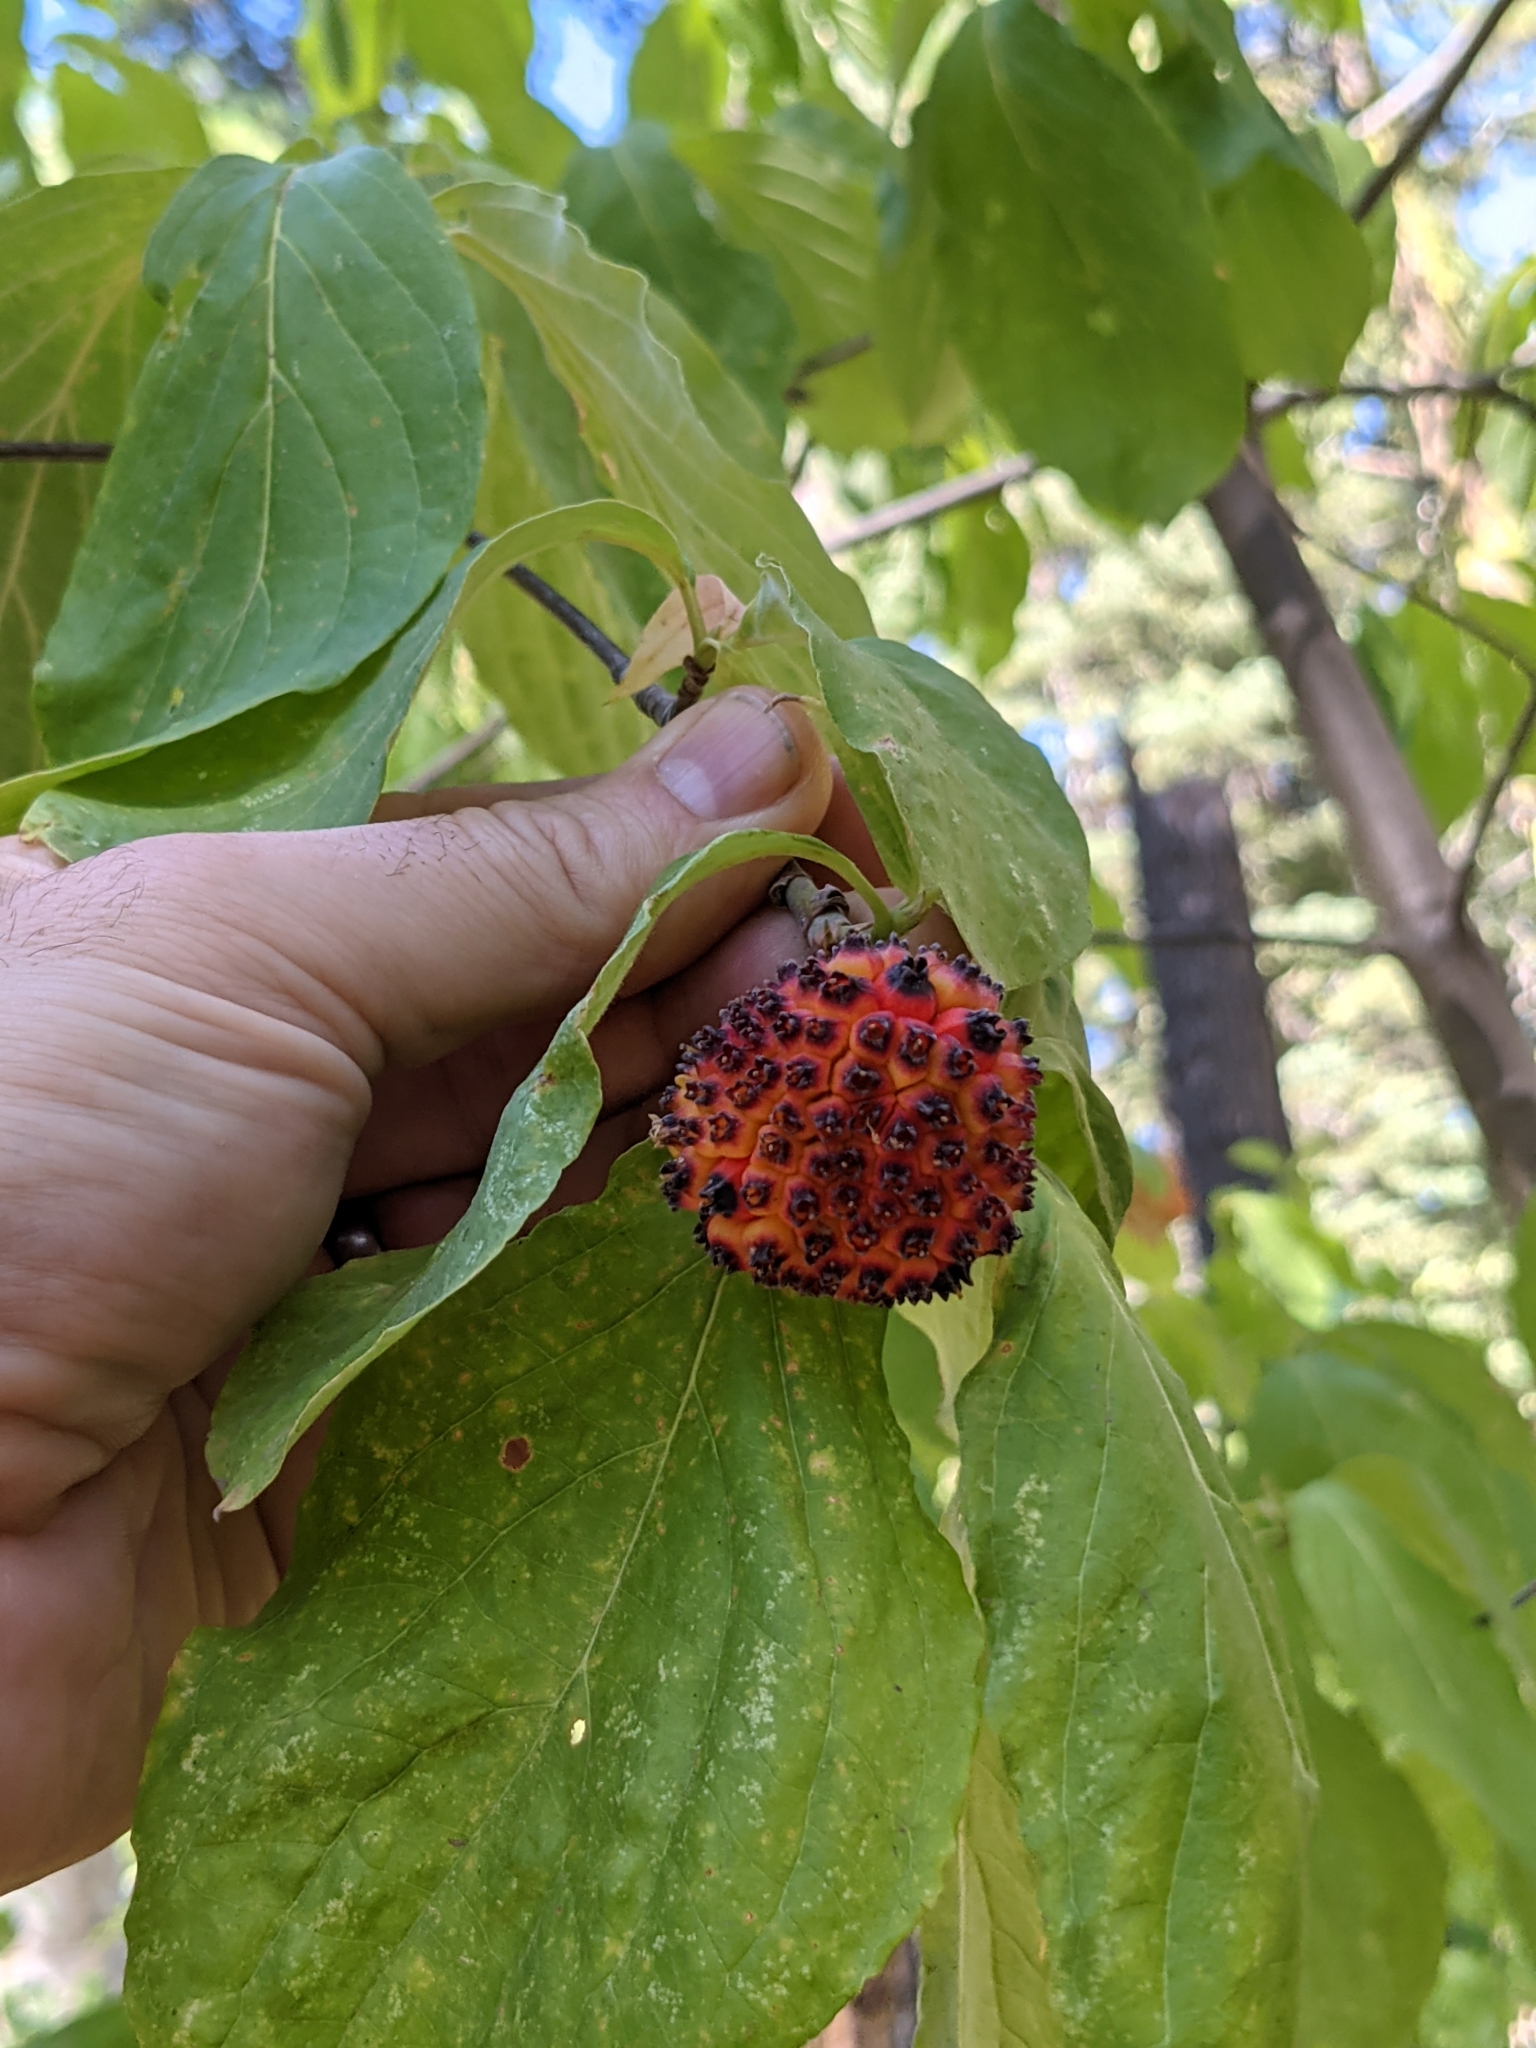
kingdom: Plantae
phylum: Tracheophyta
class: Magnoliopsida
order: Cornales
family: Cornaceae
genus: Cornus
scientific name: Cornus nuttallii
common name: Pacific dogwood
